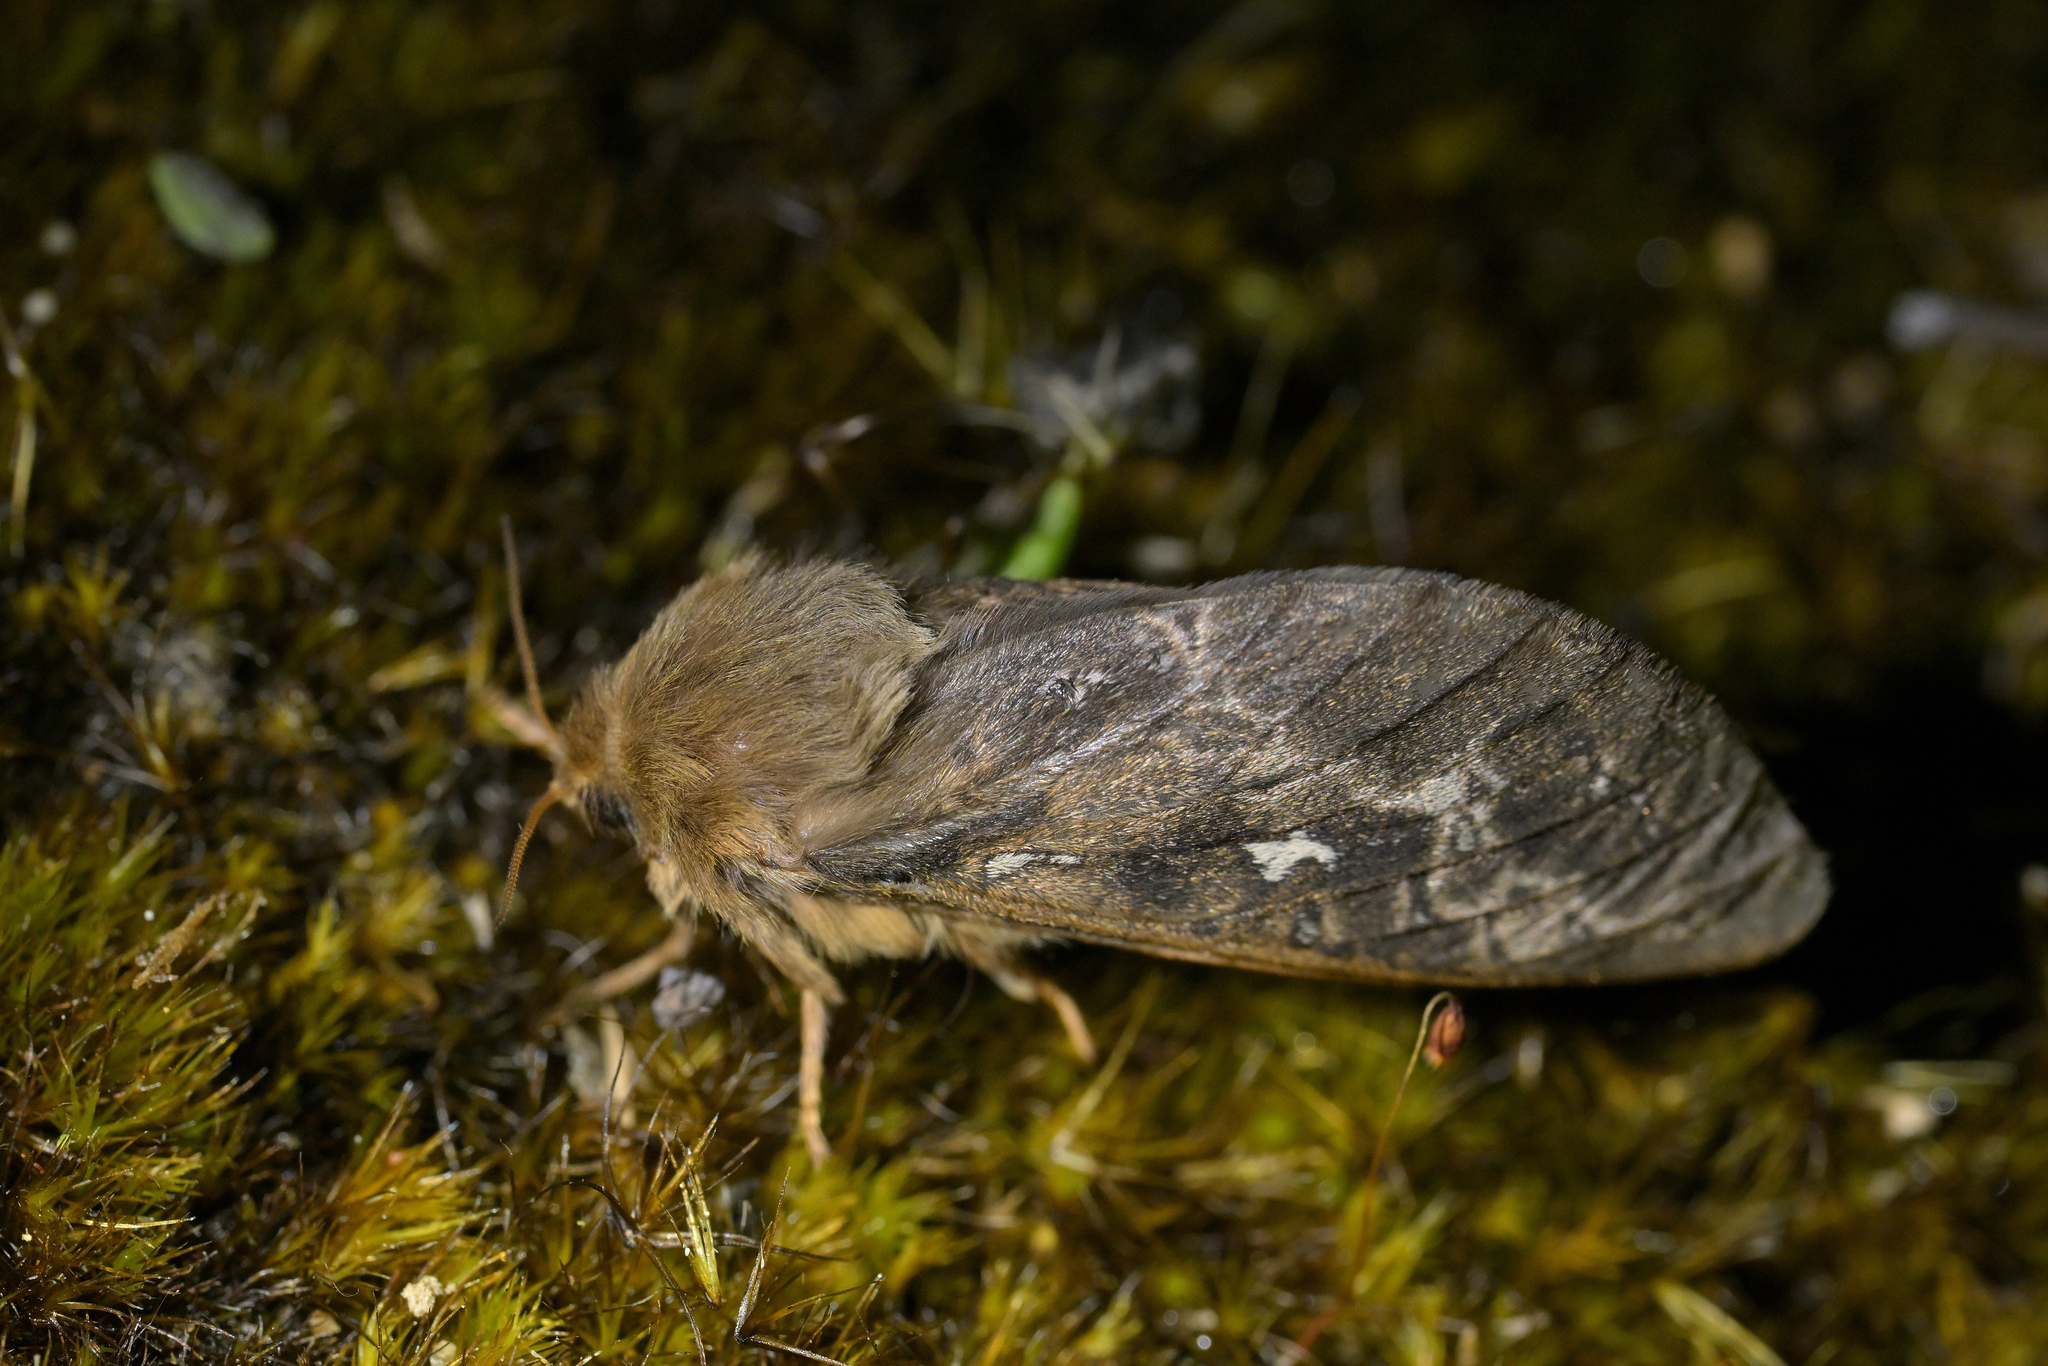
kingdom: Animalia
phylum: Arthropoda
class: Insecta
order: Lepidoptera
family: Hepialidae
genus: Wiseana
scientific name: Wiseana cervinata
